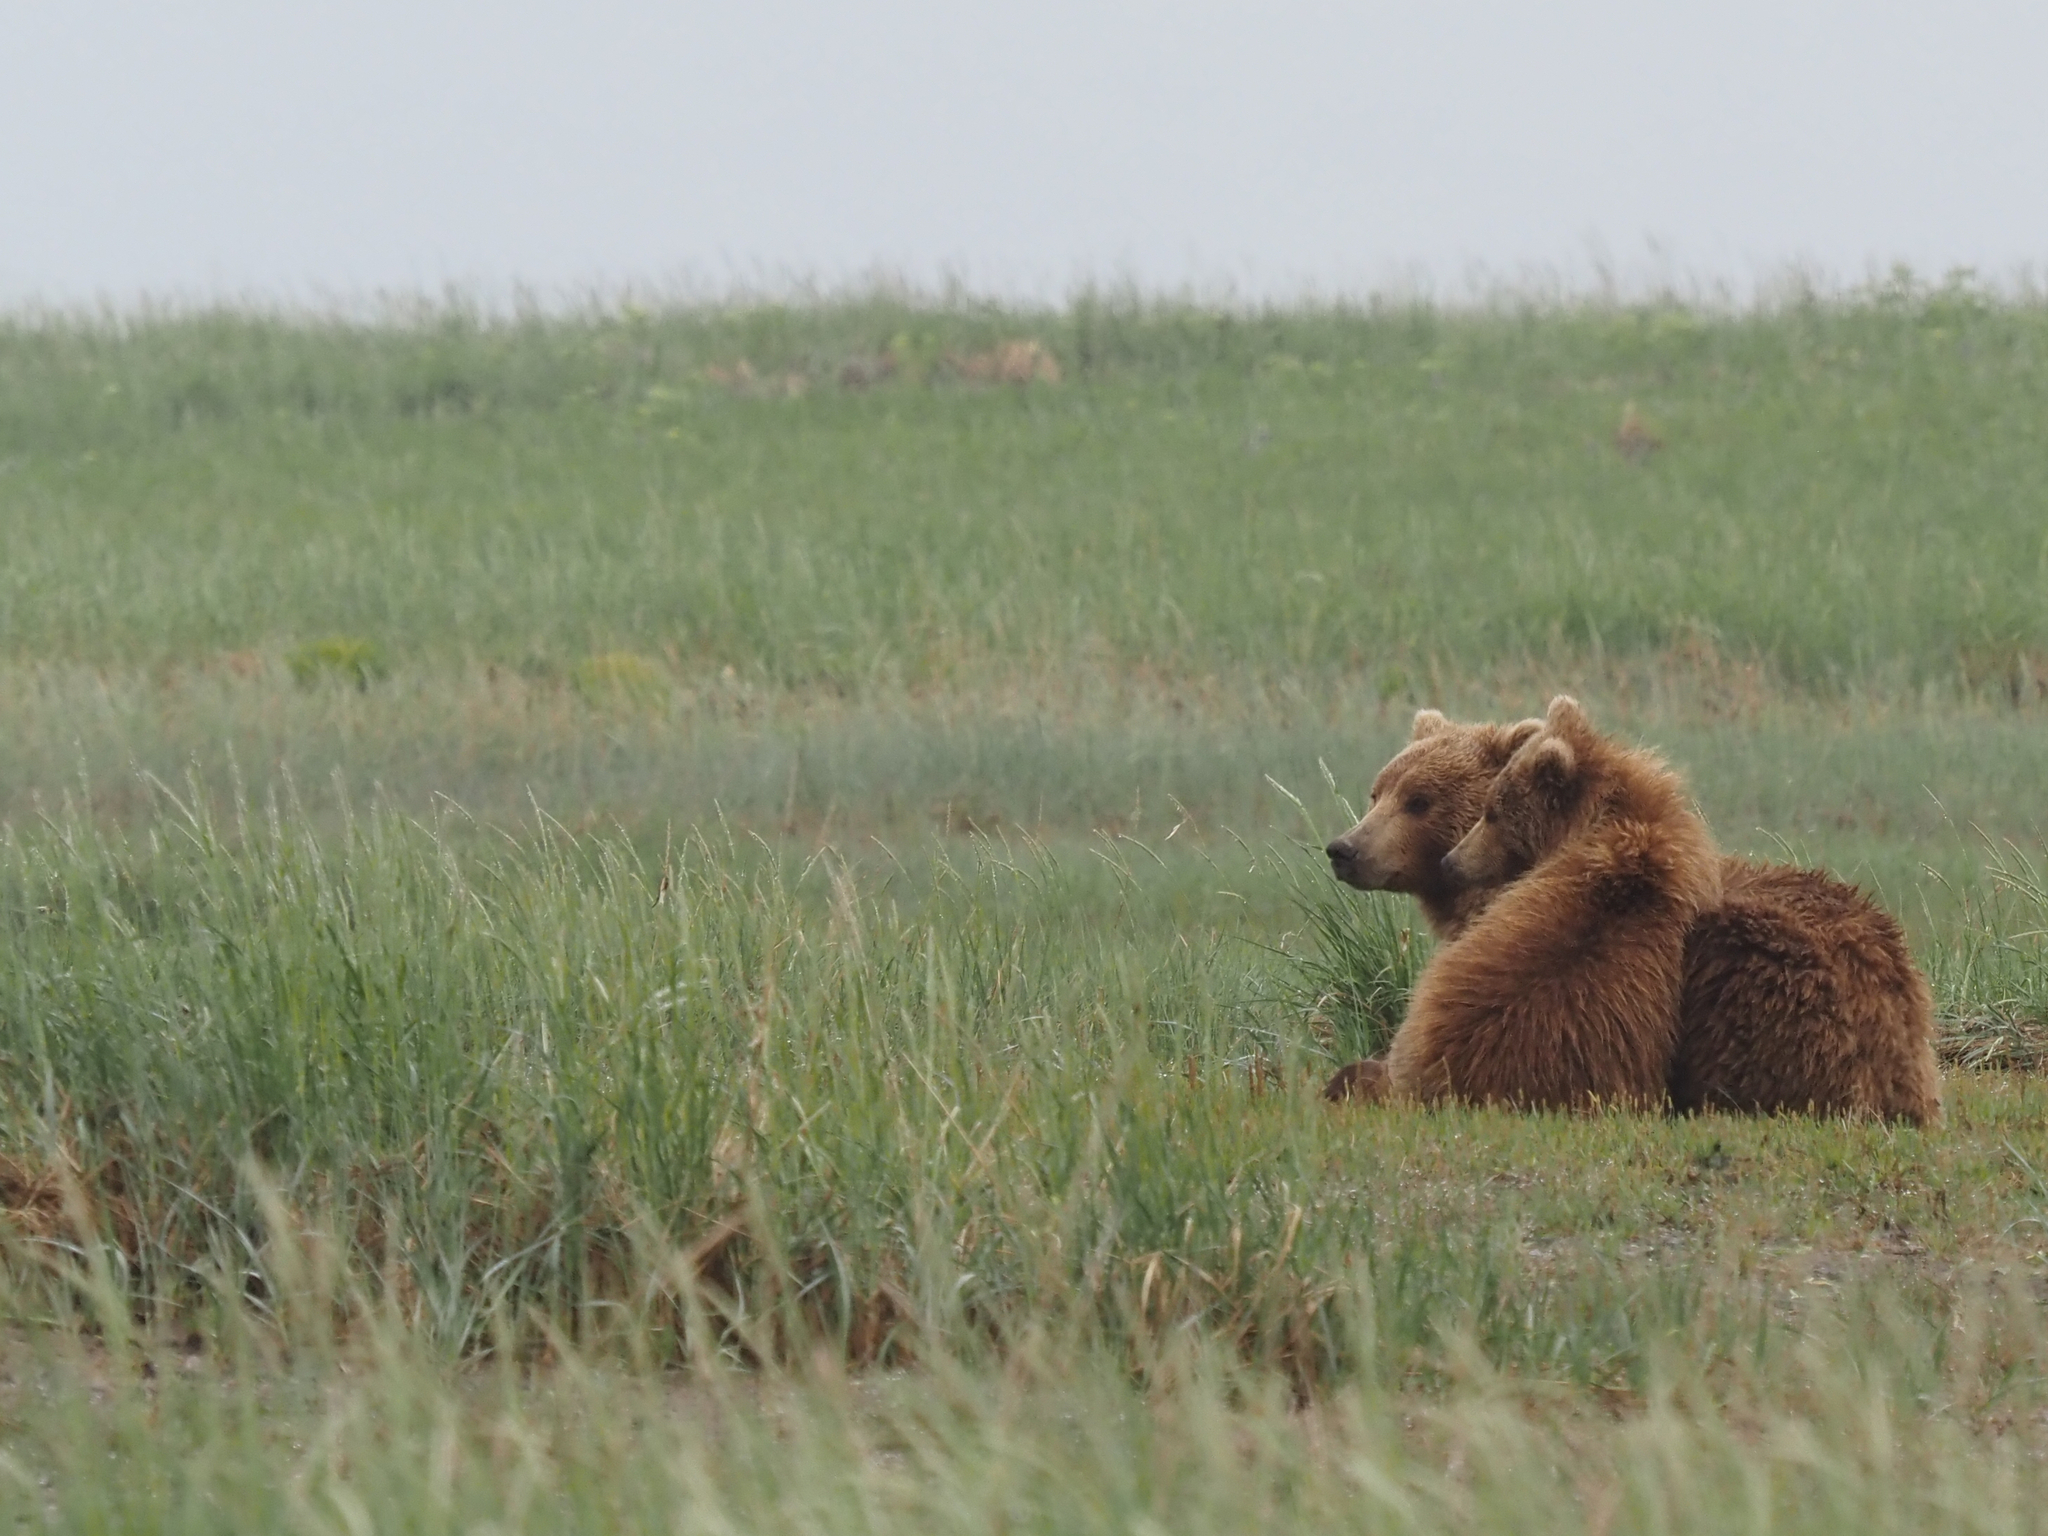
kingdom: Animalia
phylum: Chordata
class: Mammalia
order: Carnivora
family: Ursidae
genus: Ursus
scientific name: Ursus arctos
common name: Brown bear
